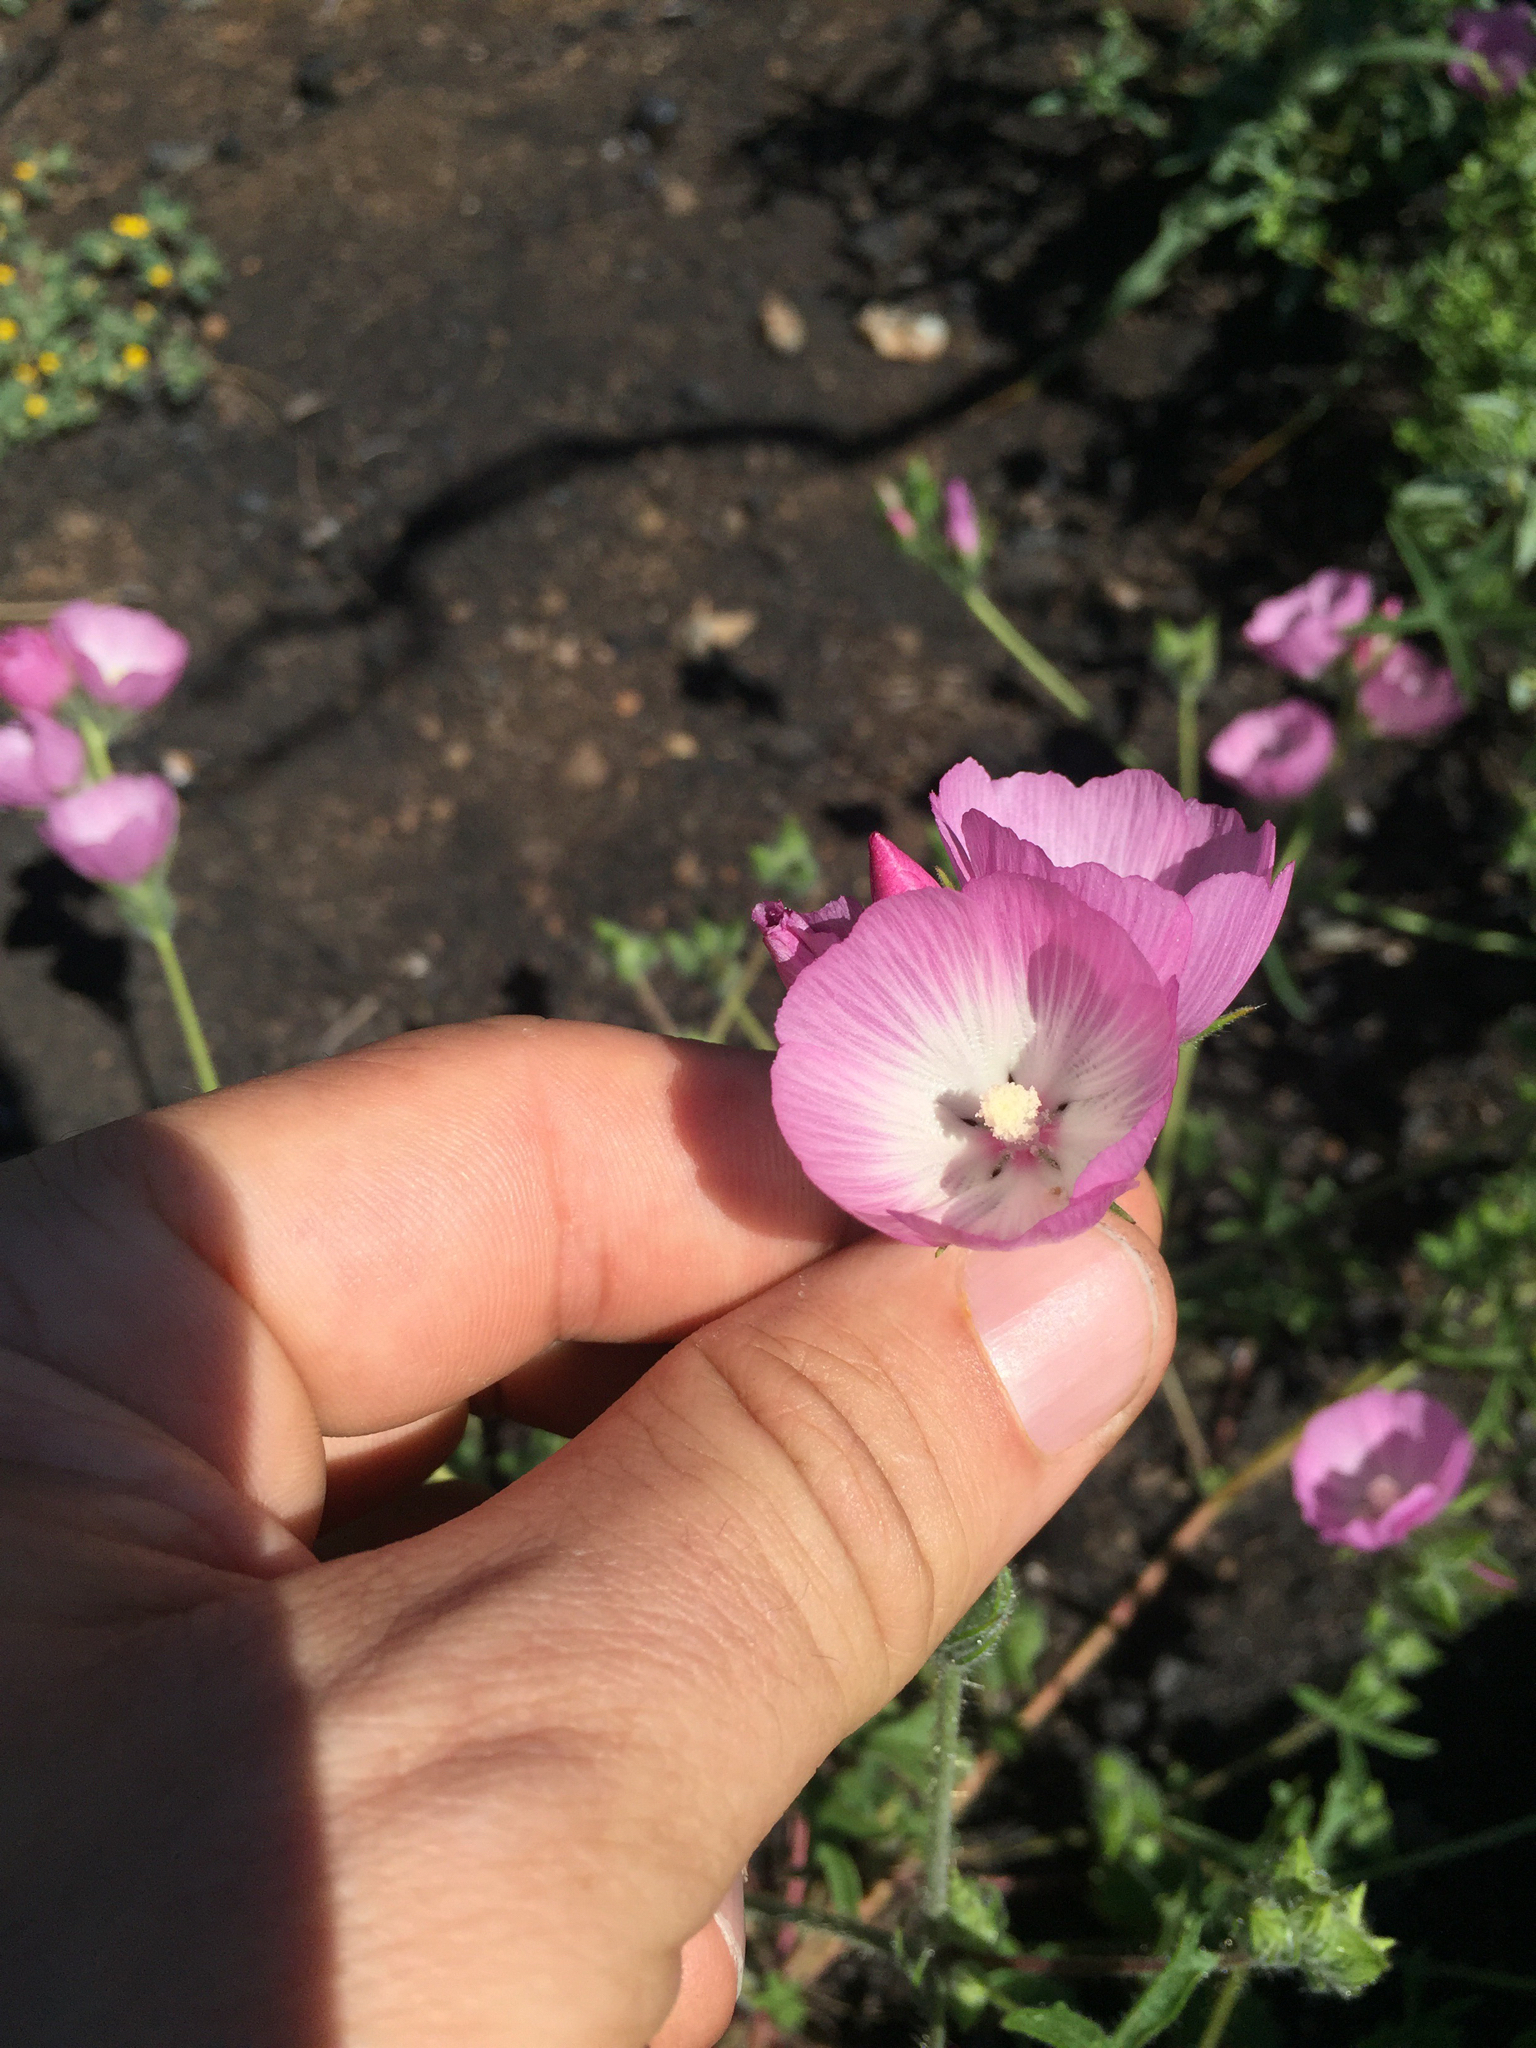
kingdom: Plantae
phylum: Tracheophyta
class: Magnoliopsida
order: Malvales
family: Malvaceae
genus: Sidalcea
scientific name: Sidalcea diploscypha
